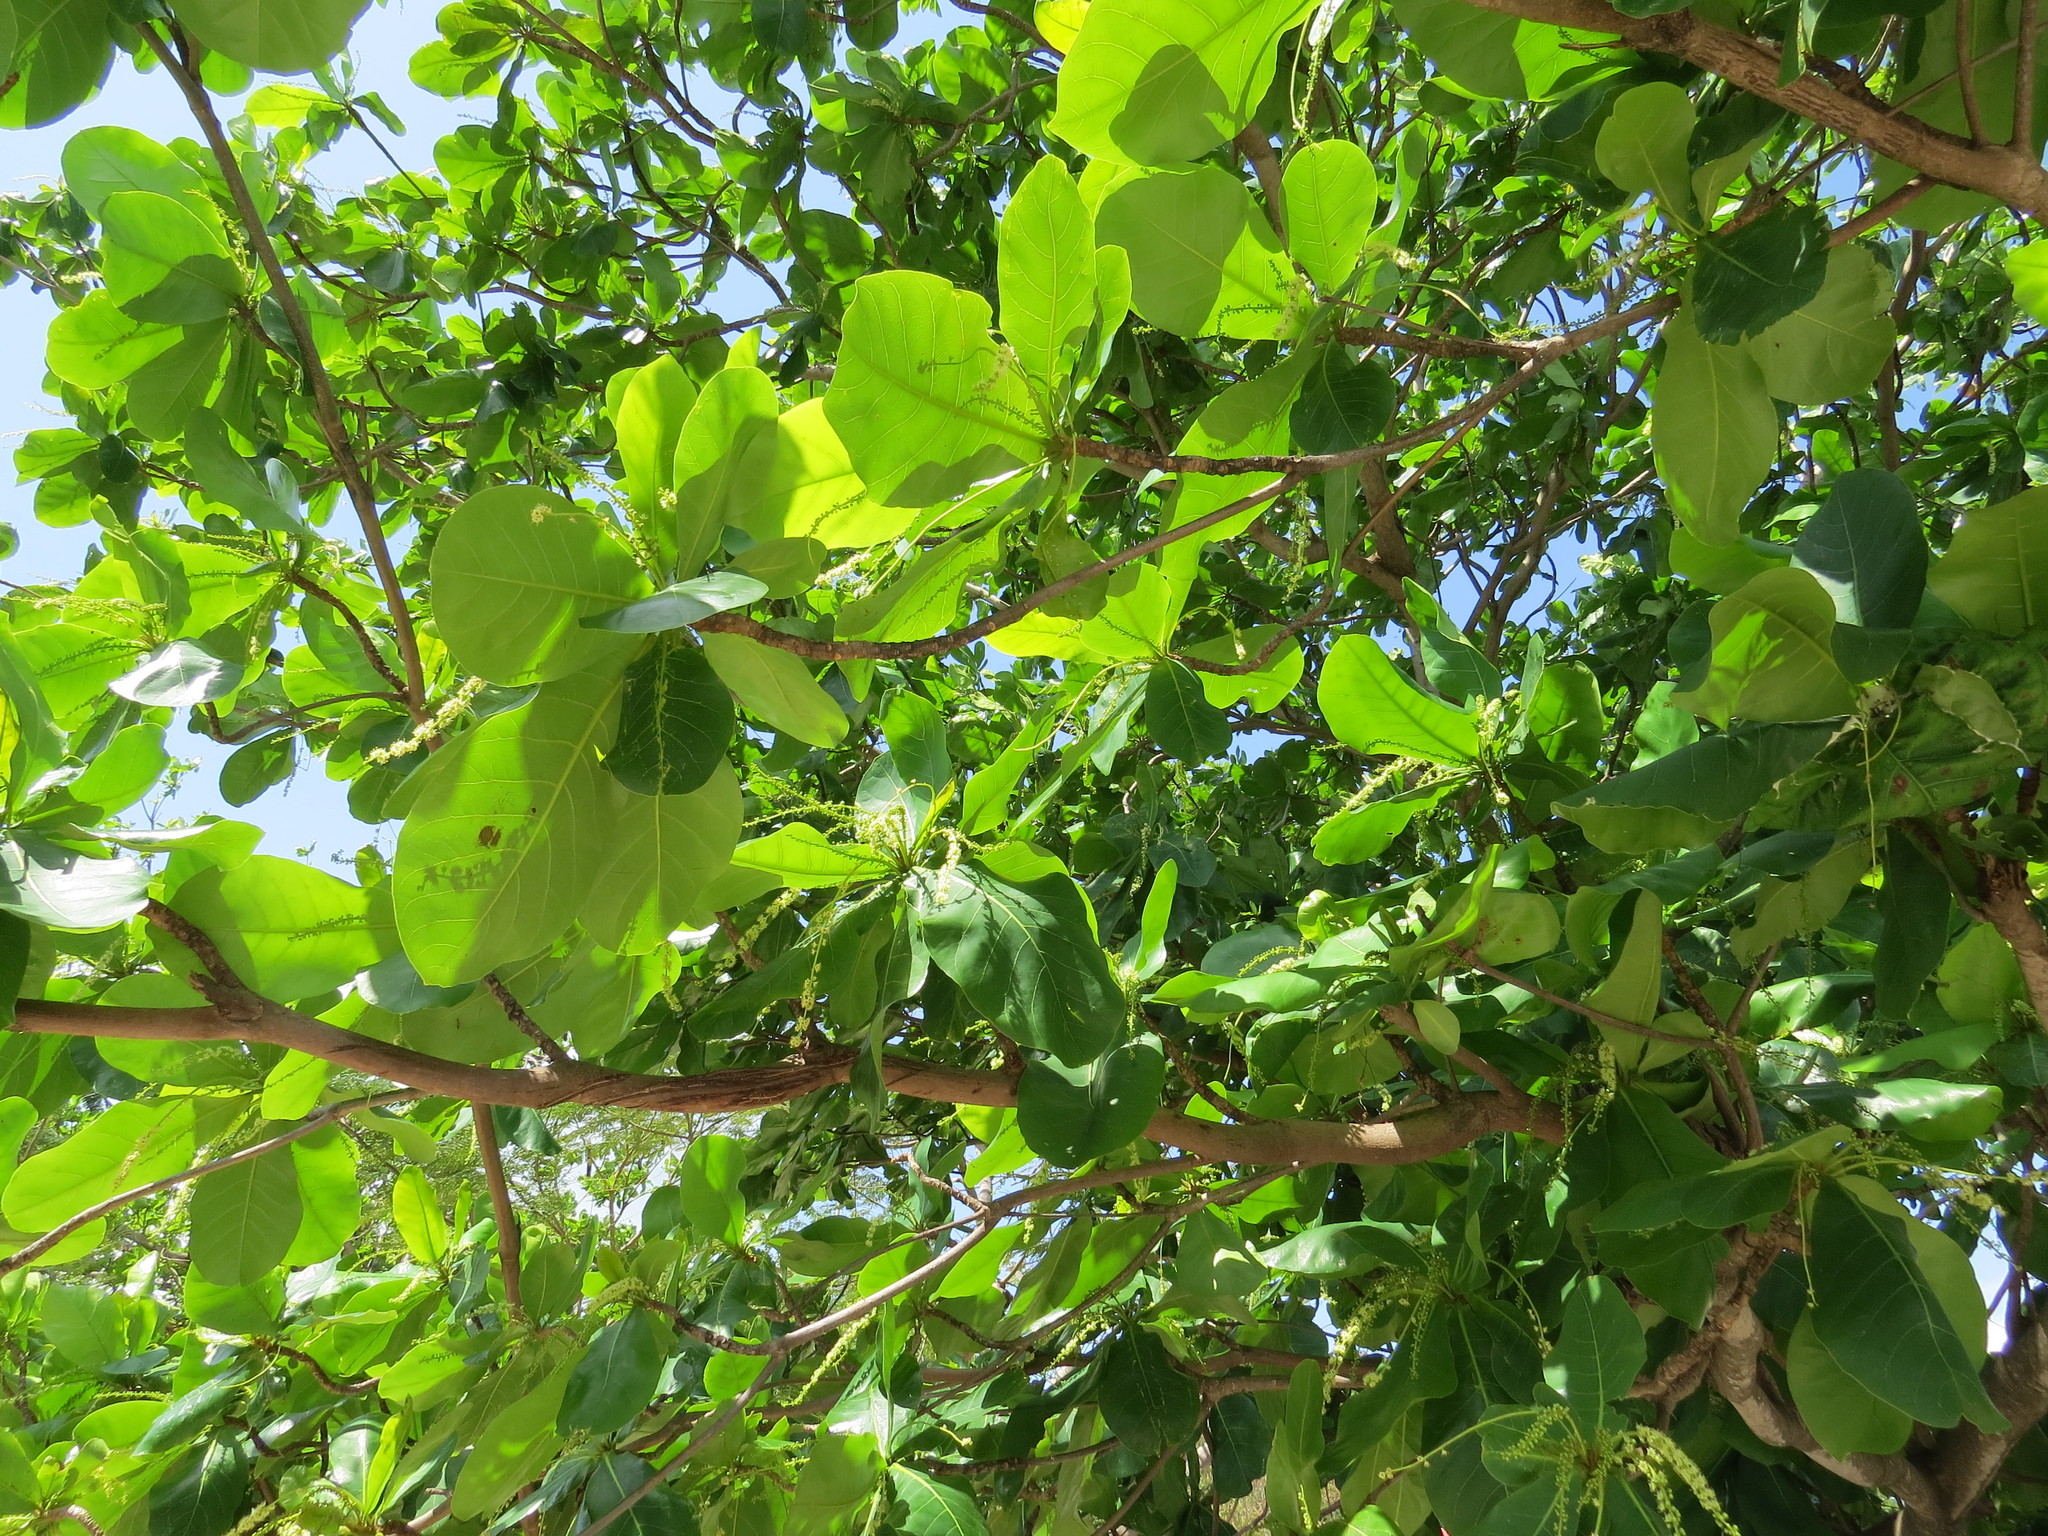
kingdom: Plantae
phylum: Tracheophyta
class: Magnoliopsida
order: Myrtales
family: Combretaceae
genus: Terminalia
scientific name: Terminalia catappa
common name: Tropical almond
